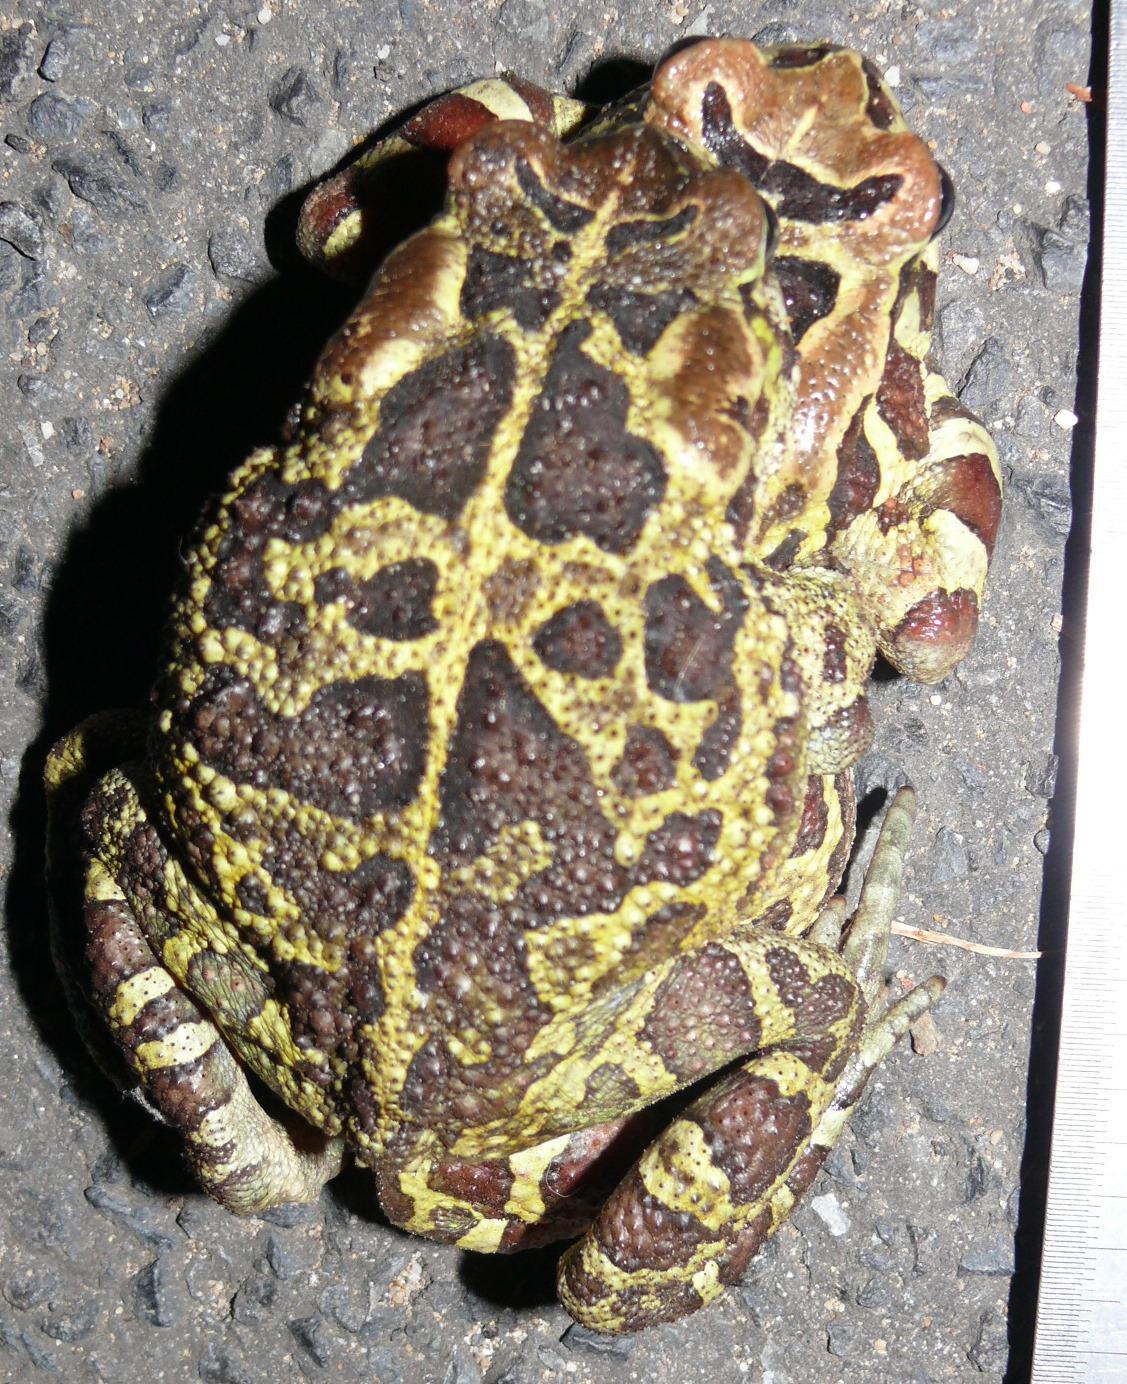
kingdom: Animalia
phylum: Chordata
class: Amphibia
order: Anura
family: Bufonidae
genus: Sclerophrys
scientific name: Sclerophrys pantherina
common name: Panther toad
